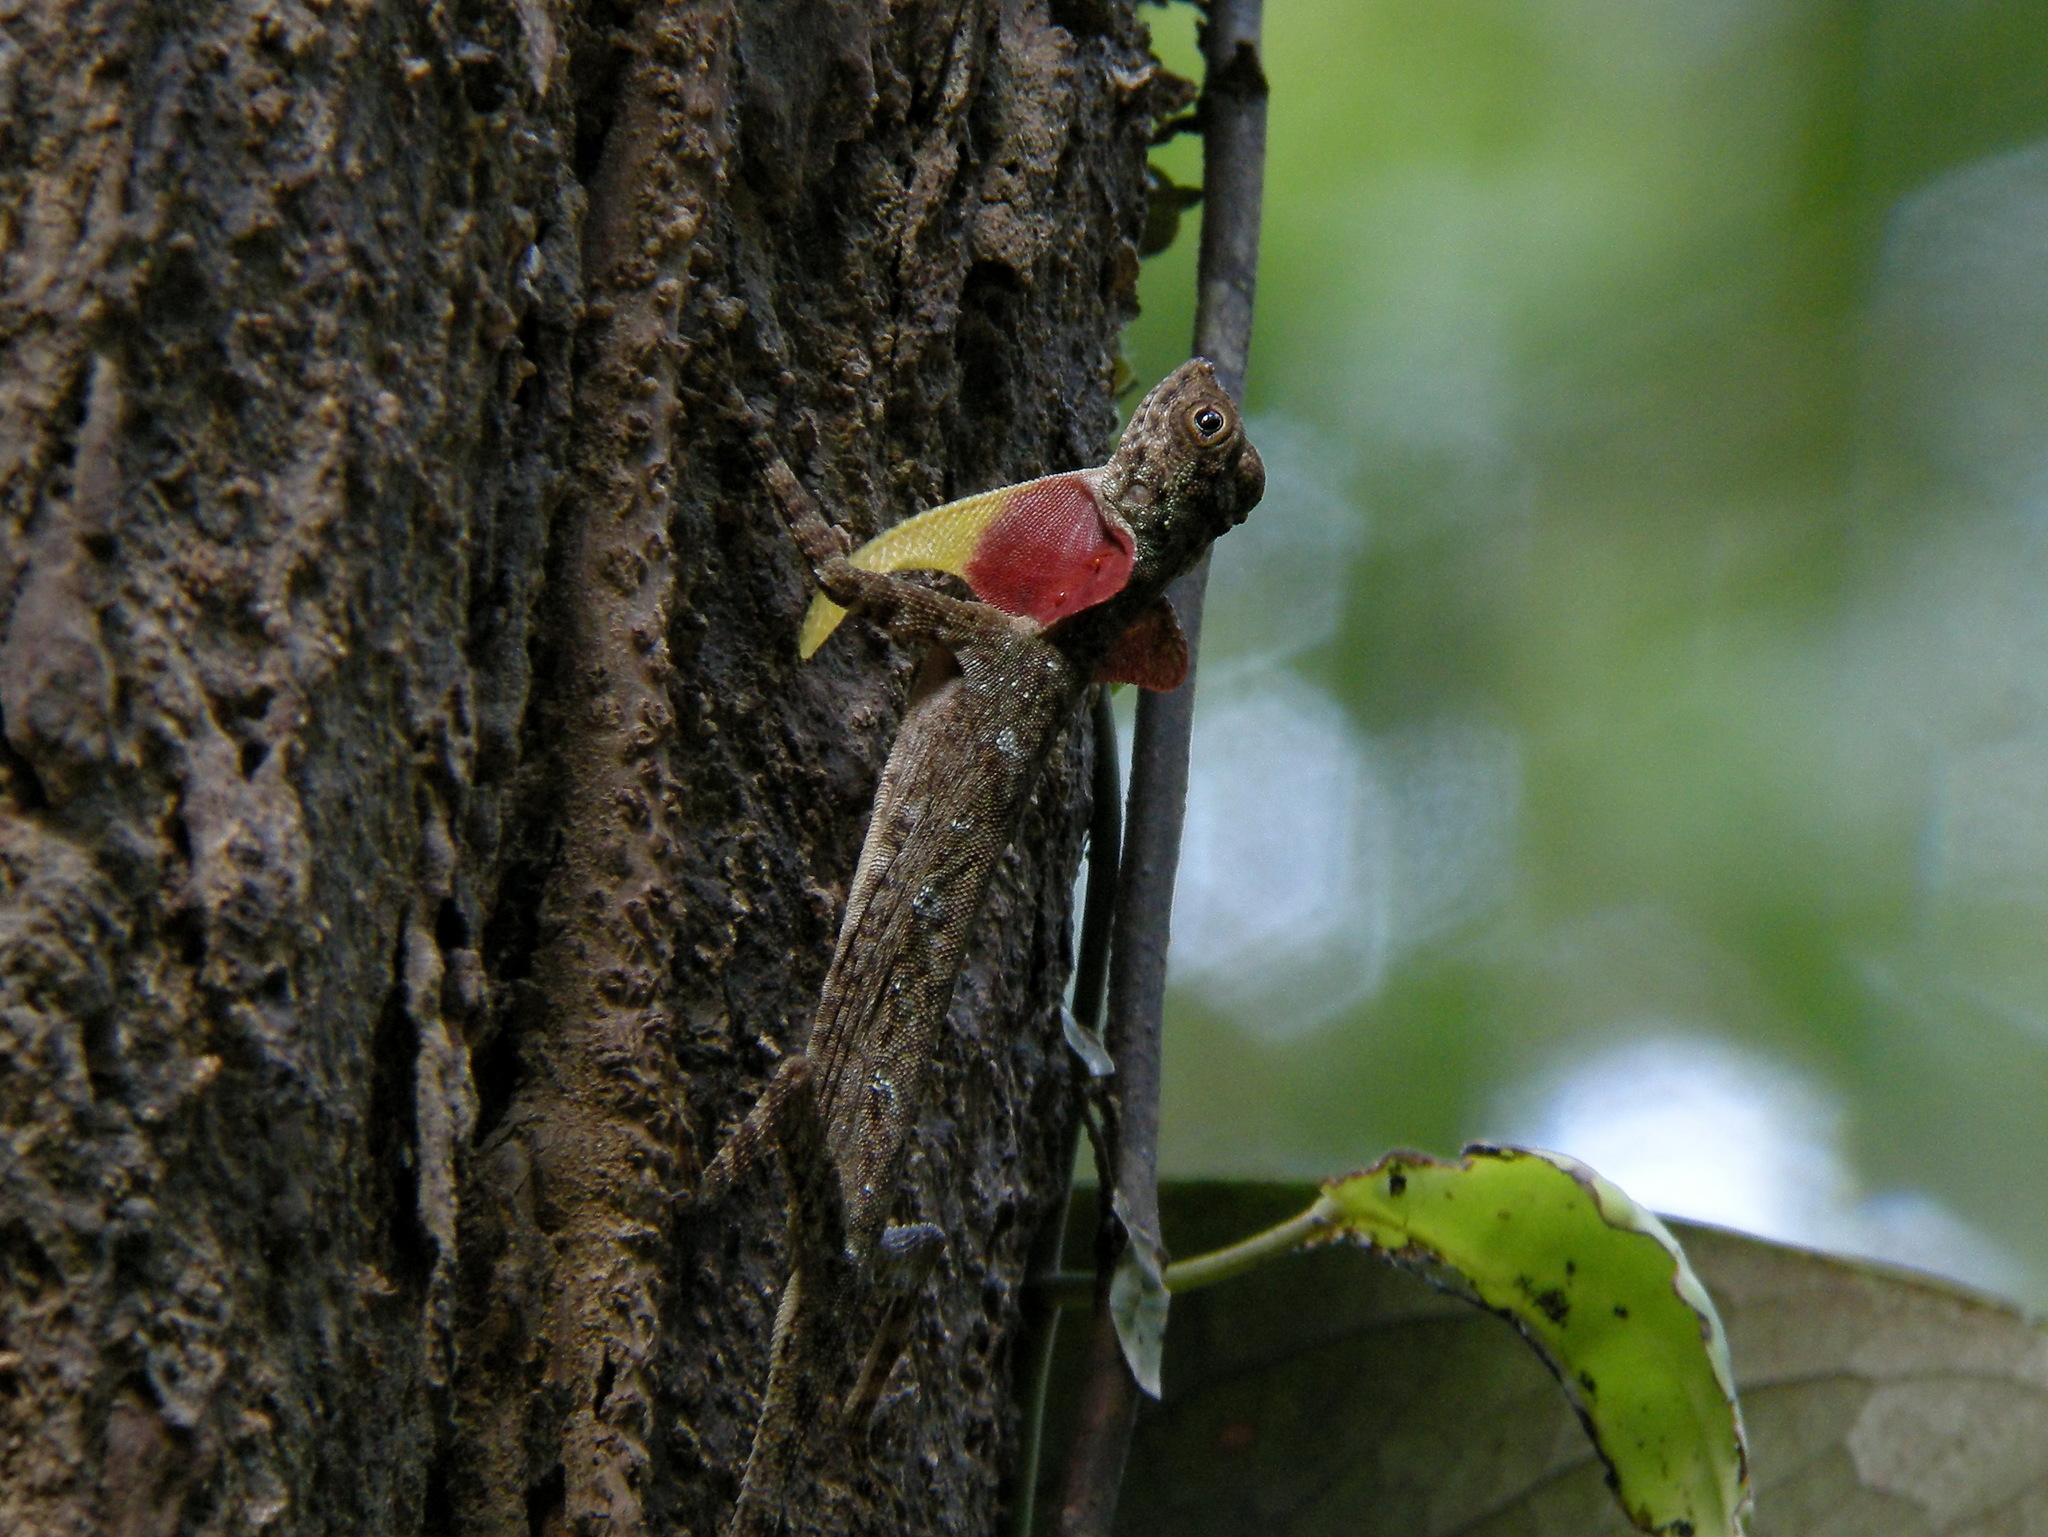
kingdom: Animalia
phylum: Chordata
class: Squamata
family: Agamidae
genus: Draco
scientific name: Draco taeniopterus
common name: Thai flying dragon
